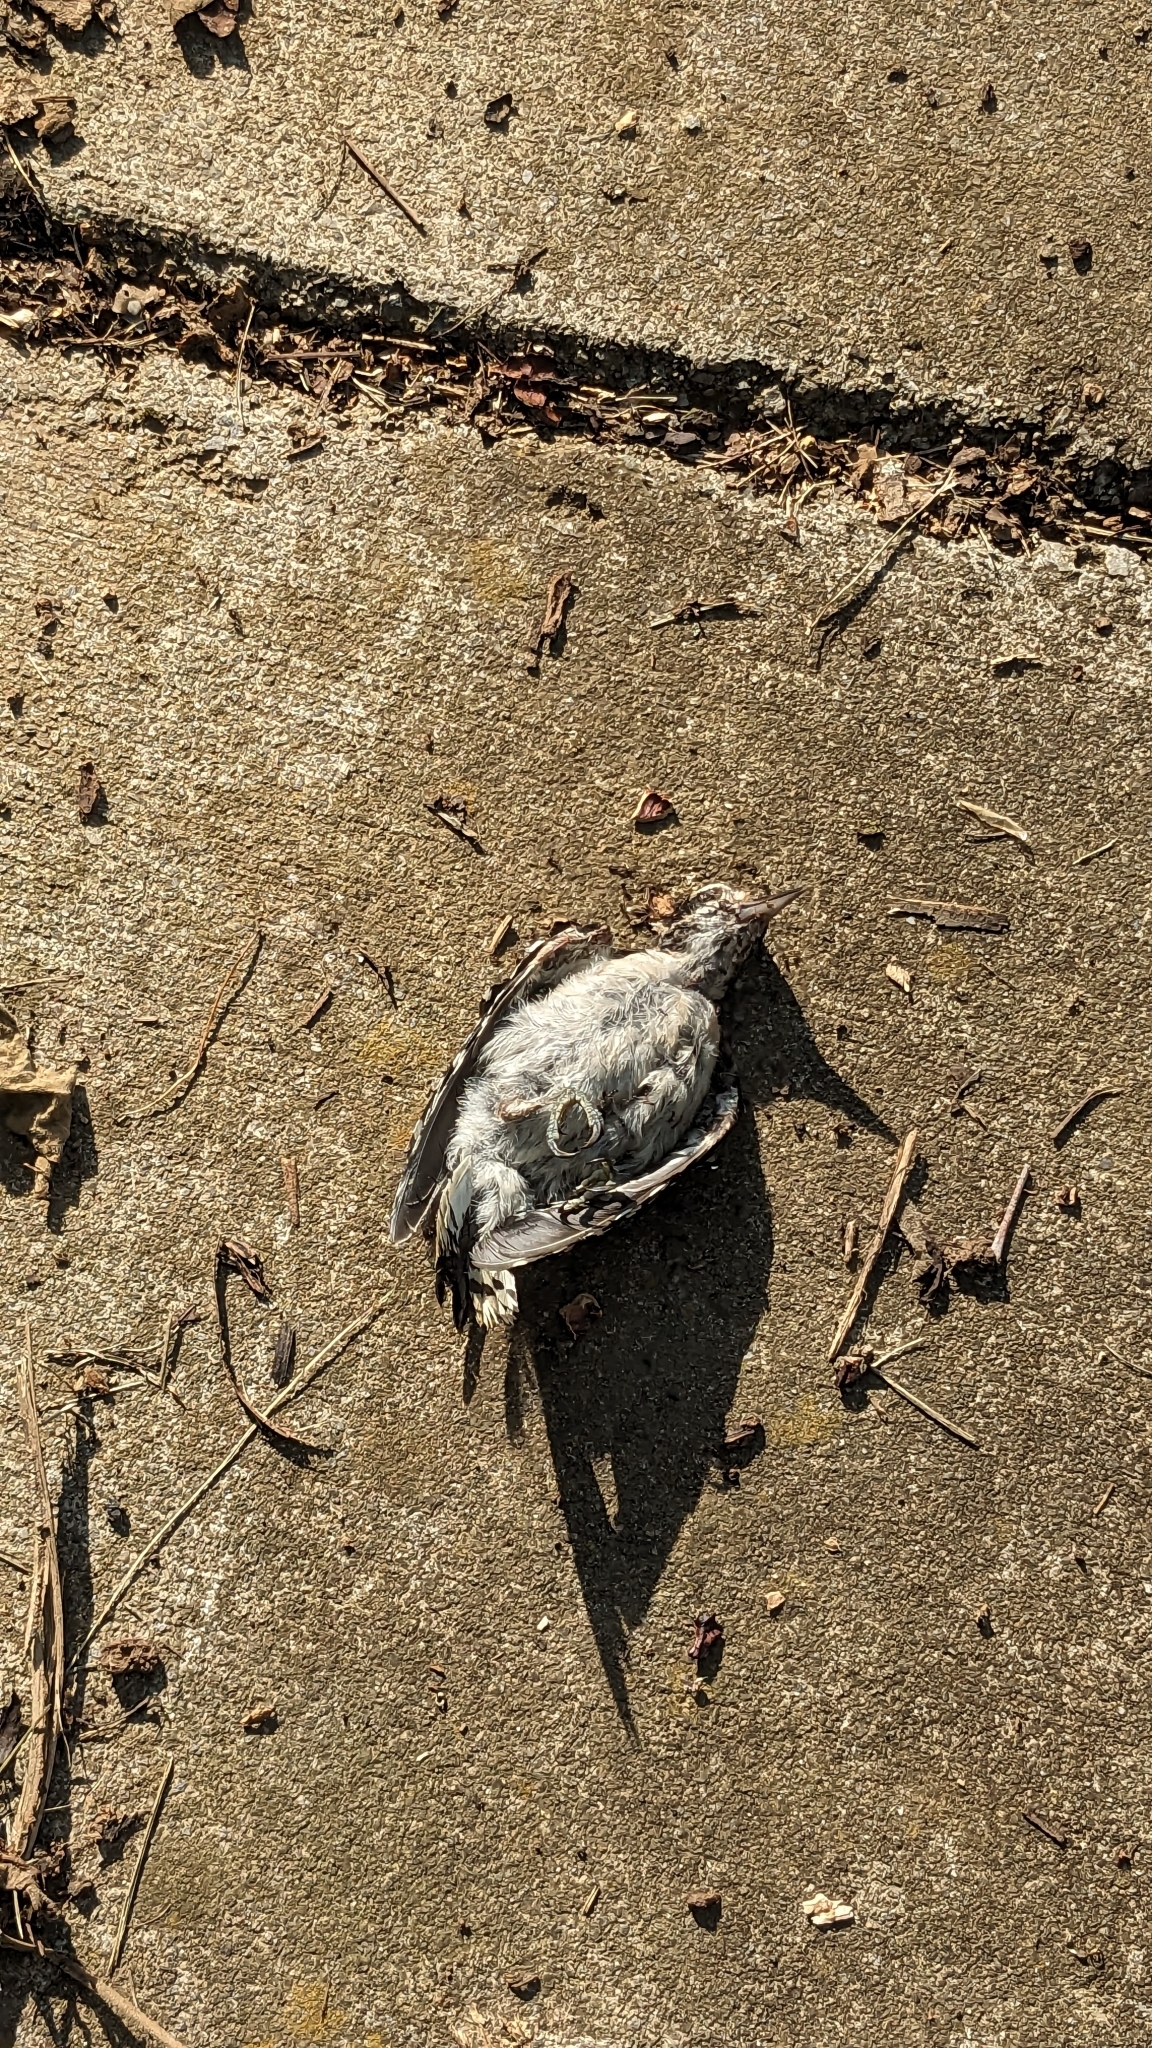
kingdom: Animalia
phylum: Chordata
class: Aves
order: Piciformes
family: Picidae
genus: Dryobates
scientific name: Dryobates pubescens
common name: Downy woodpecker
